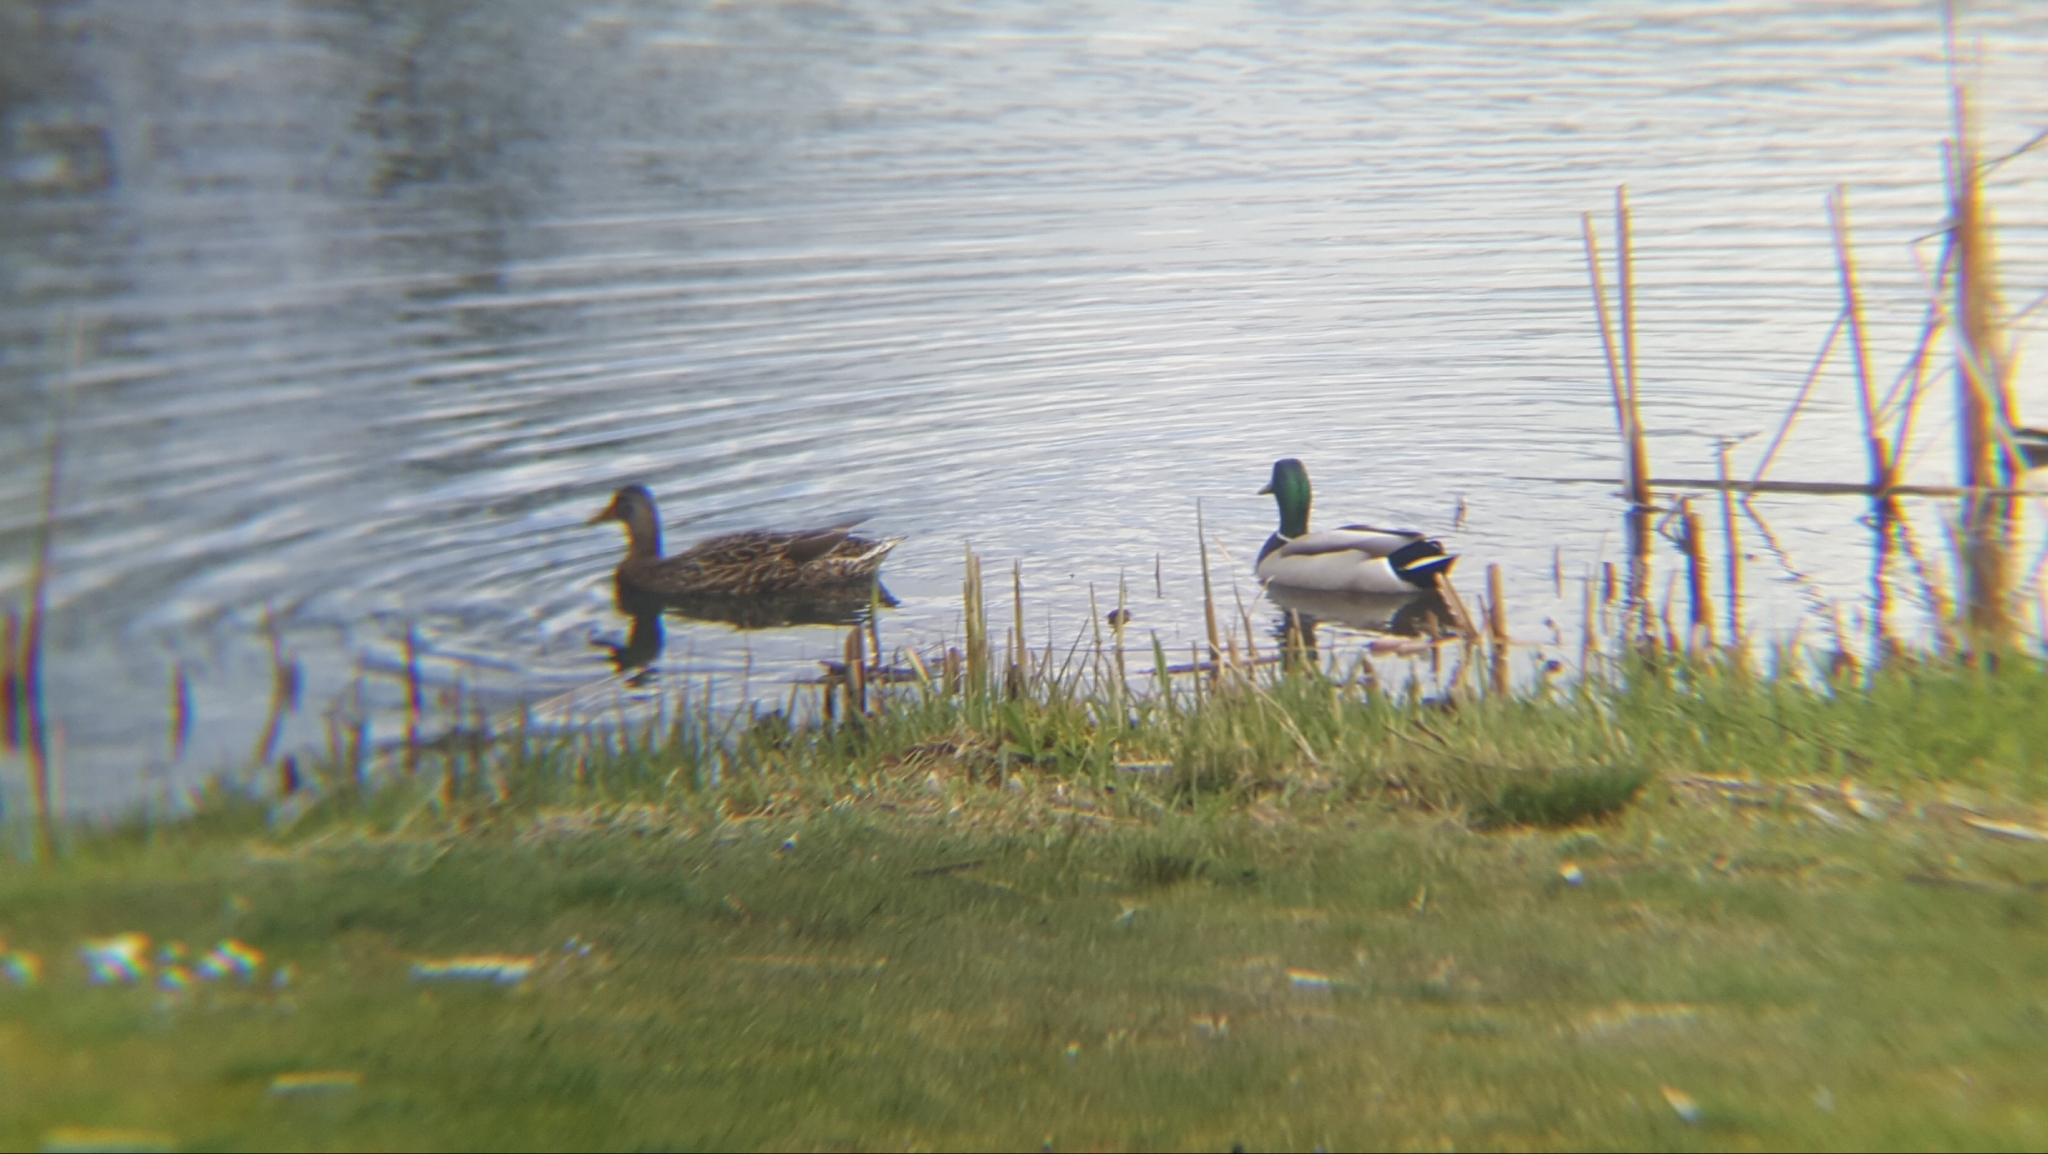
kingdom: Animalia
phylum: Chordata
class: Aves
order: Anseriformes
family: Anatidae
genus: Anas
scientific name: Anas platyrhynchos
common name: Mallard
